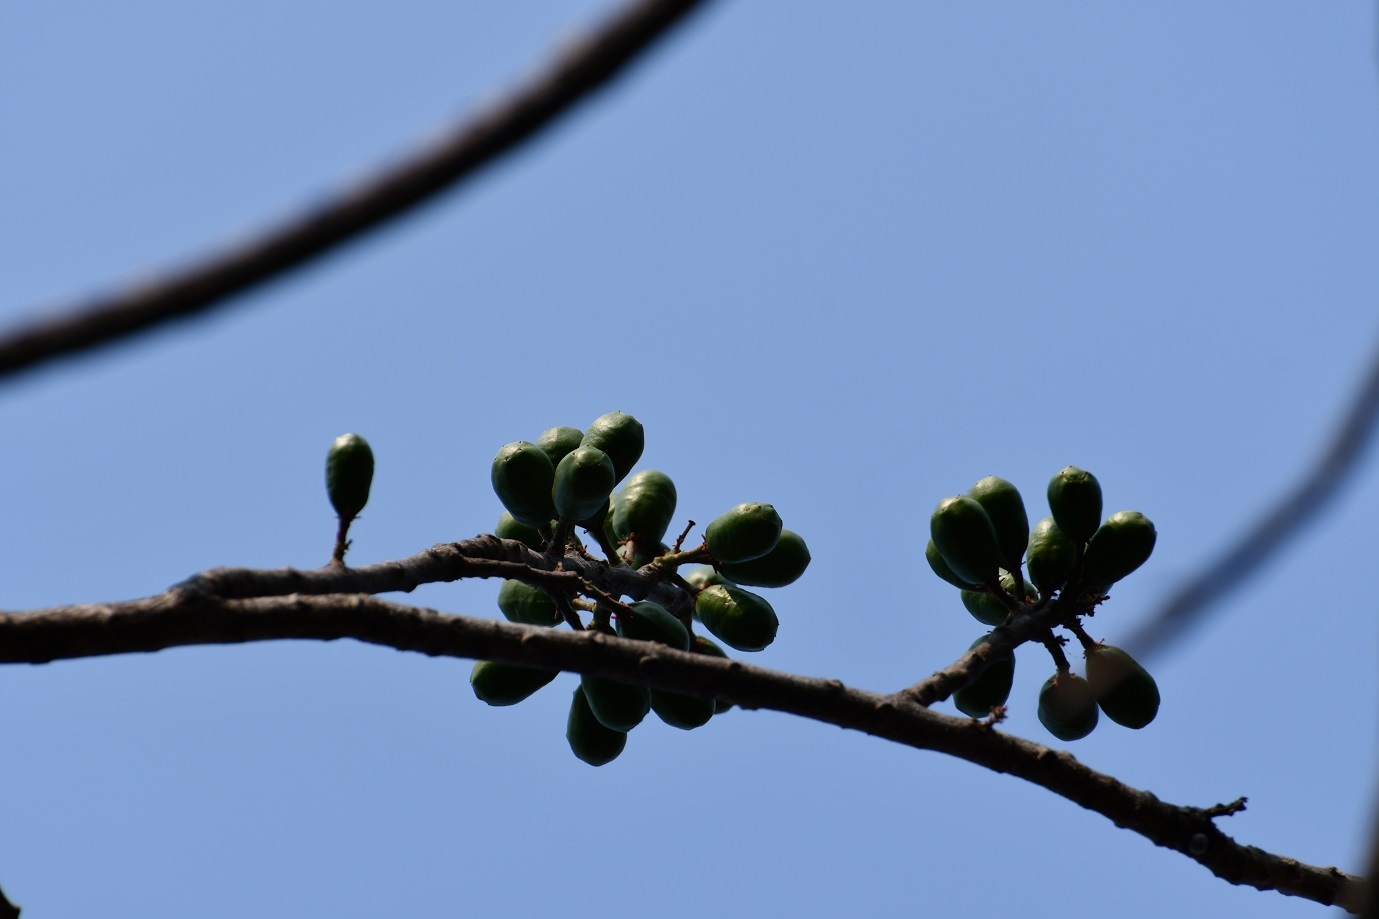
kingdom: Plantae
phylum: Tracheophyta
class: Magnoliopsida
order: Sapindales
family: Anacardiaceae
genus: Spondias
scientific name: Spondias purpurea
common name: Purple mombin
